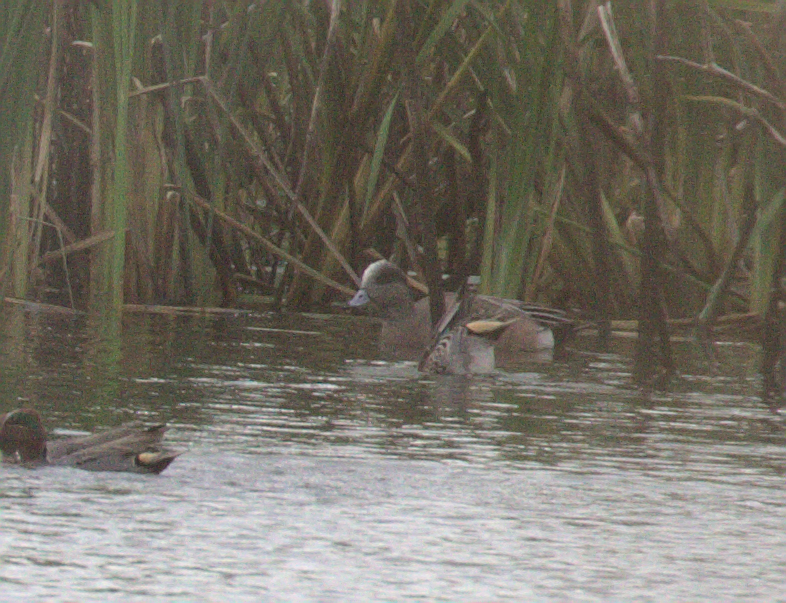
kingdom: Animalia
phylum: Chordata
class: Aves
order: Anseriformes
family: Anatidae
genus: Mareca
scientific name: Mareca americana
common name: American wigeon
